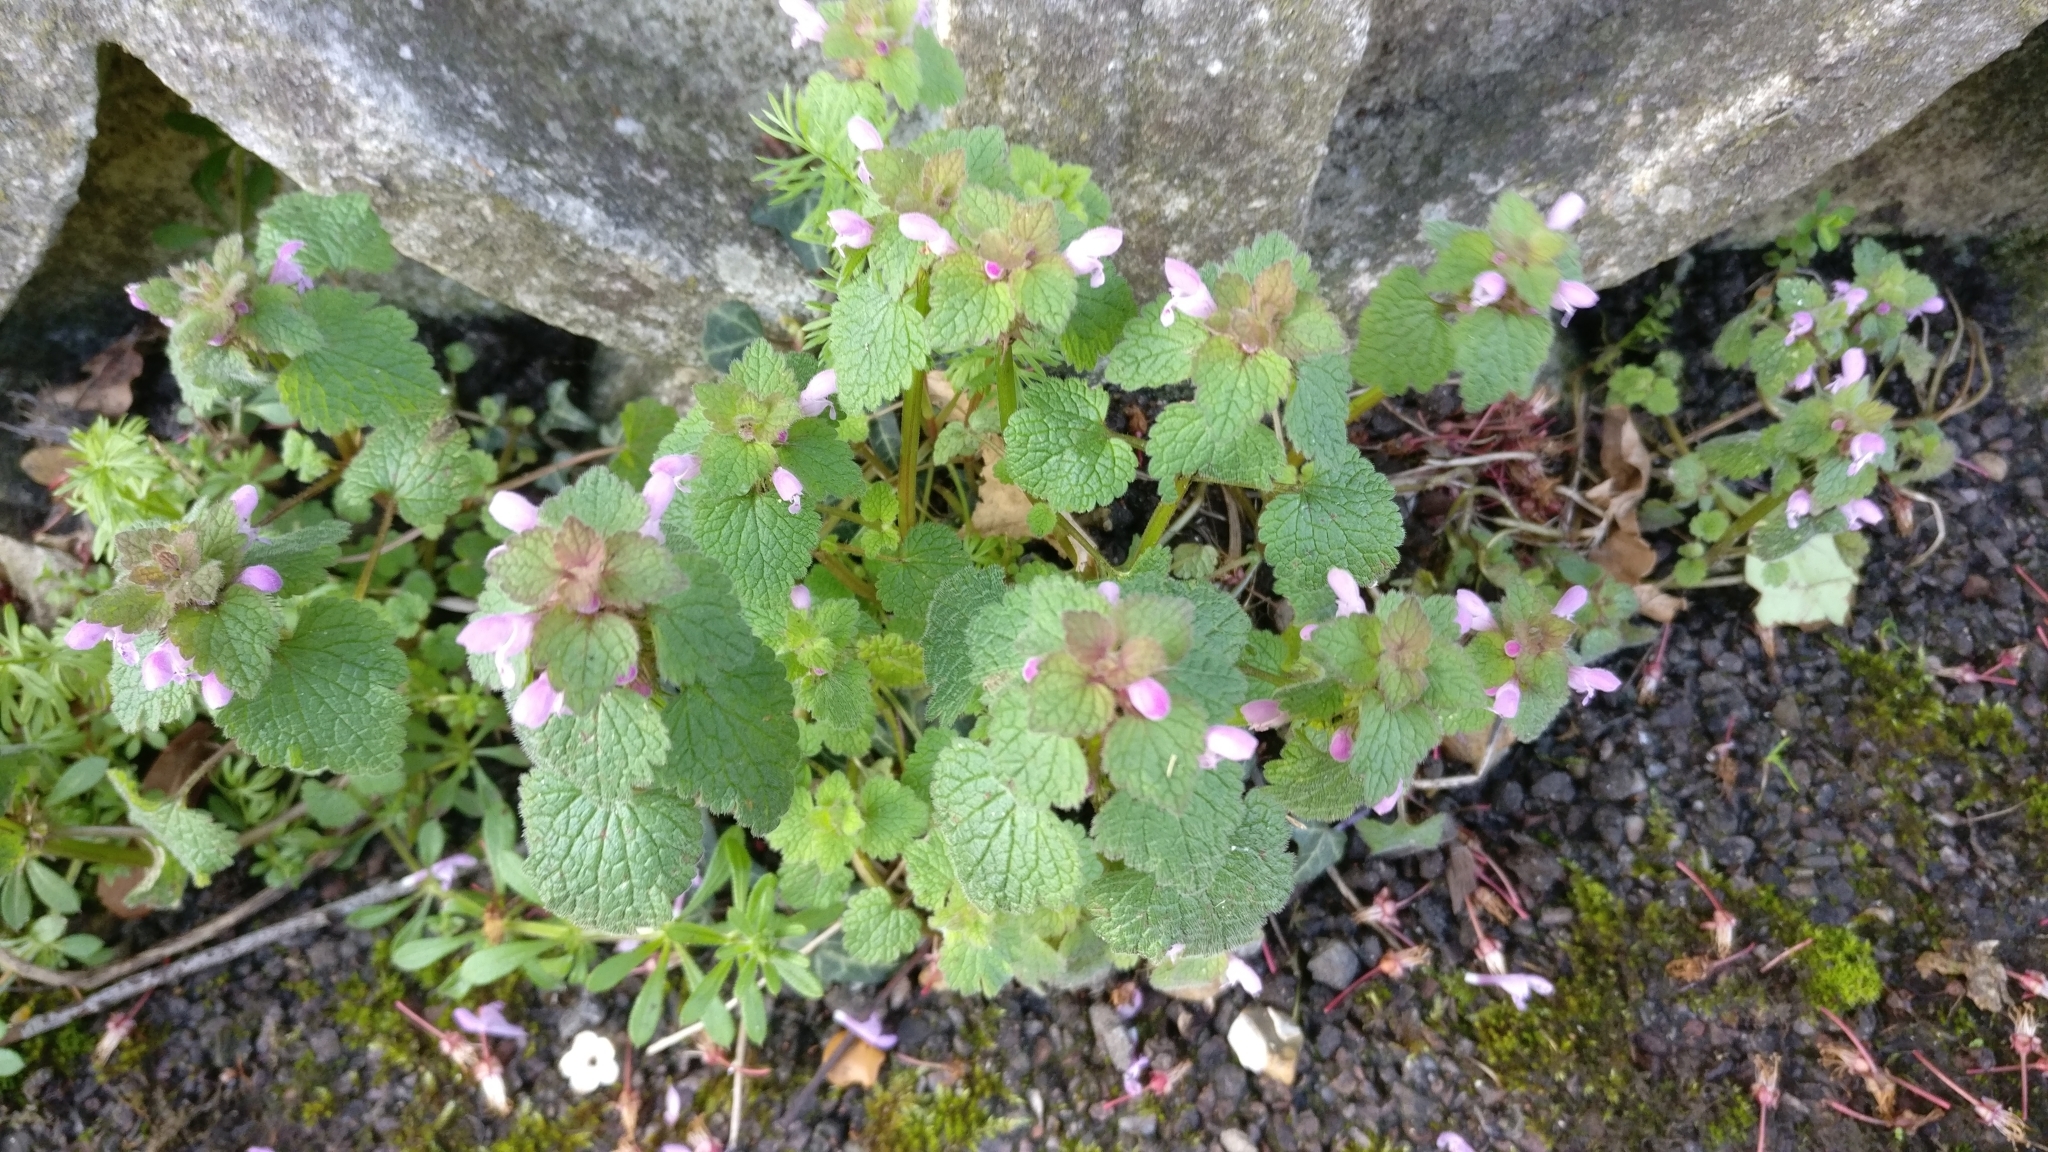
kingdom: Plantae
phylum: Tracheophyta
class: Magnoliopsida
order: Lamiales
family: Lamiaceae
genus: Lamium
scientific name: Lamium purpureum
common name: Red dead-nettle
